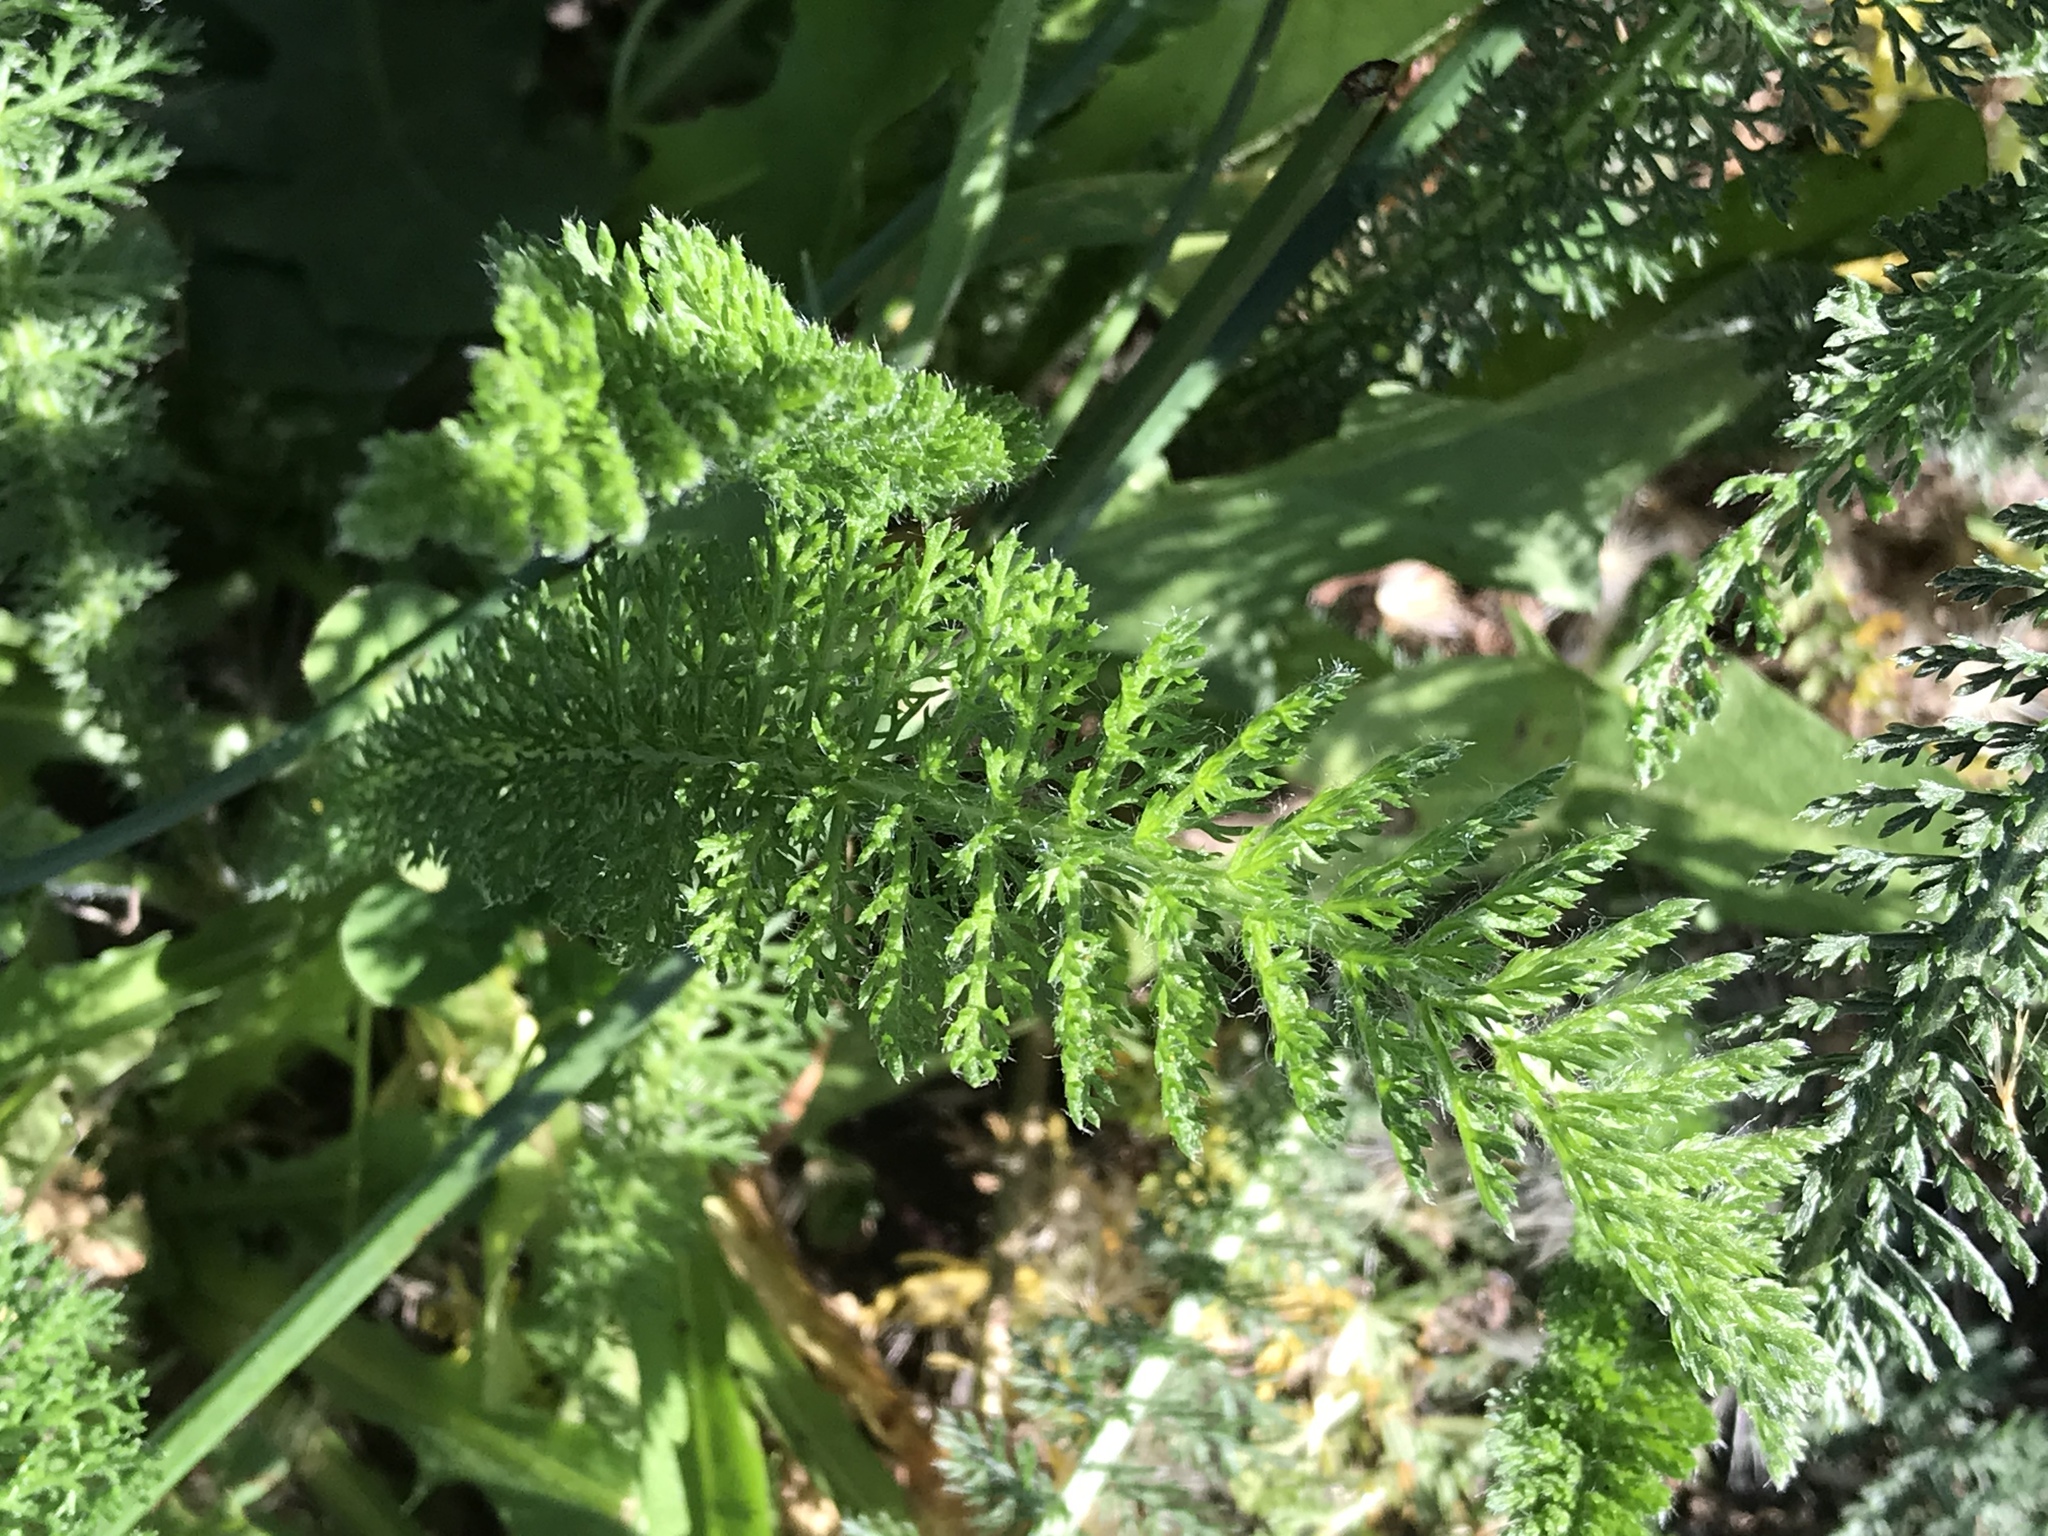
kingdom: Plantae
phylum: Tracheophyta
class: Magnoliopsida
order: Asterales
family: Asteraceae
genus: Achillea
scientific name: Achillea millefolium
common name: Yarrow
